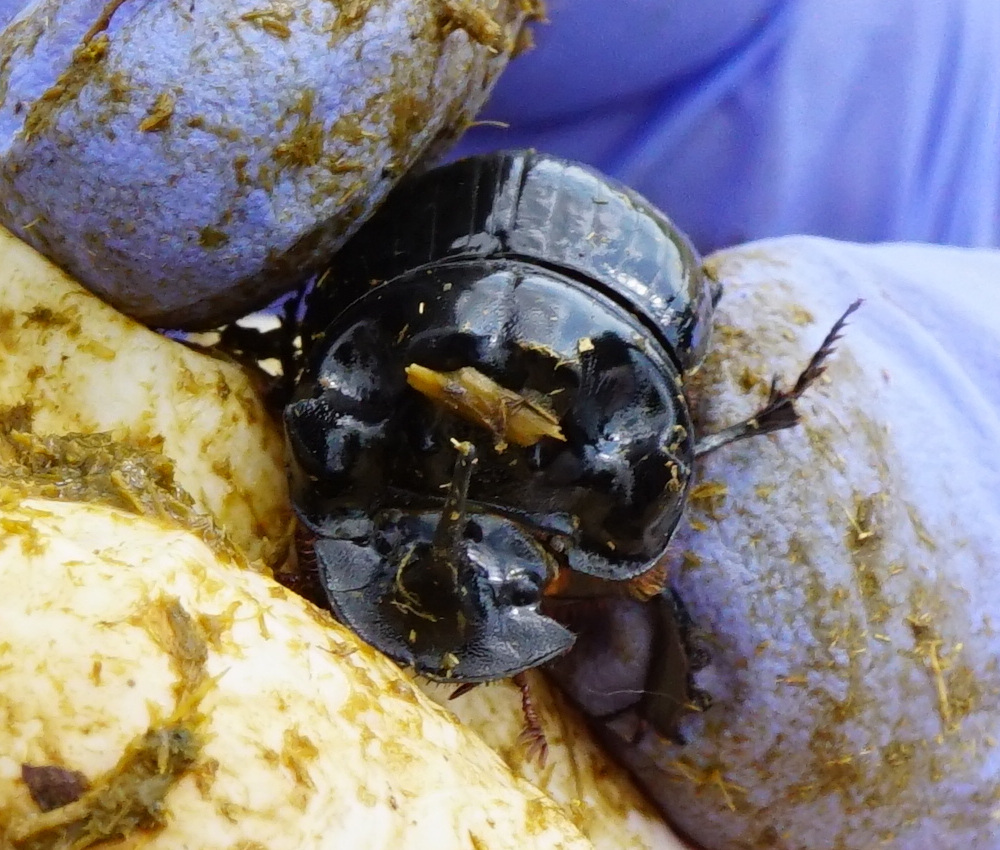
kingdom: Animalia
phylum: Arthropoda
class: Insecta
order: Coleoptera
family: Scarabaeidae
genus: Copris
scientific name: Copris lunaris
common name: Horned dung beetle
